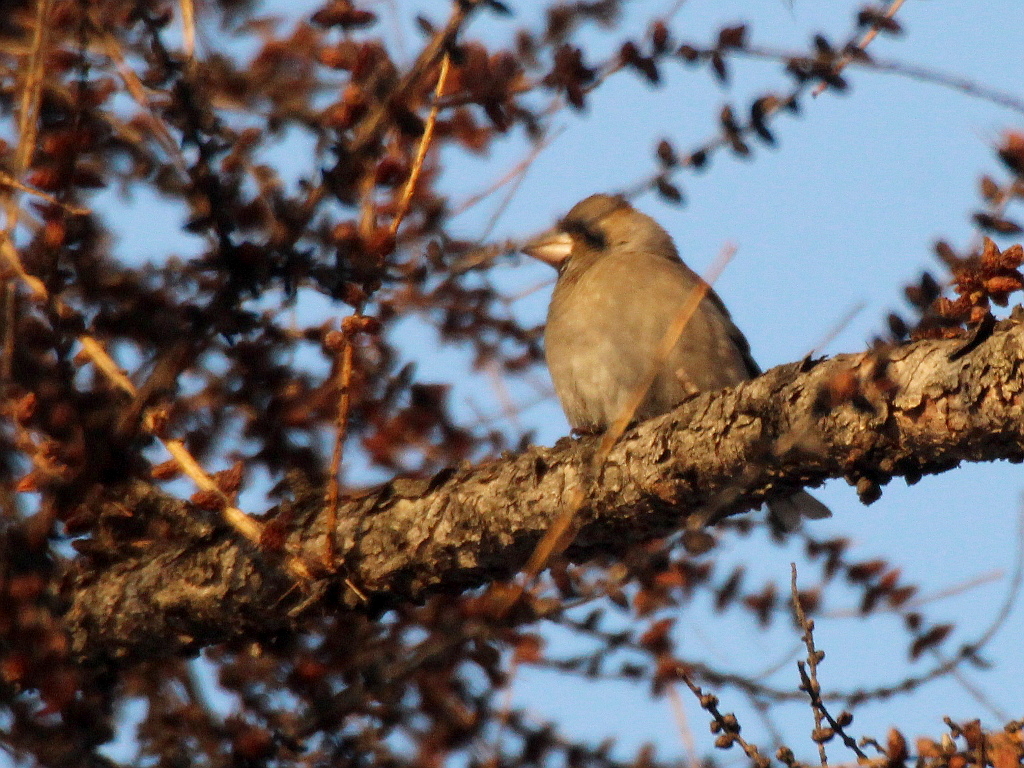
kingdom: Animalia
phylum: Chordata
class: Aves
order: Passeriformes
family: Fringillidae
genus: Coccothraustes
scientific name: Coccothraustes coccothraustes
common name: Hawfinch
